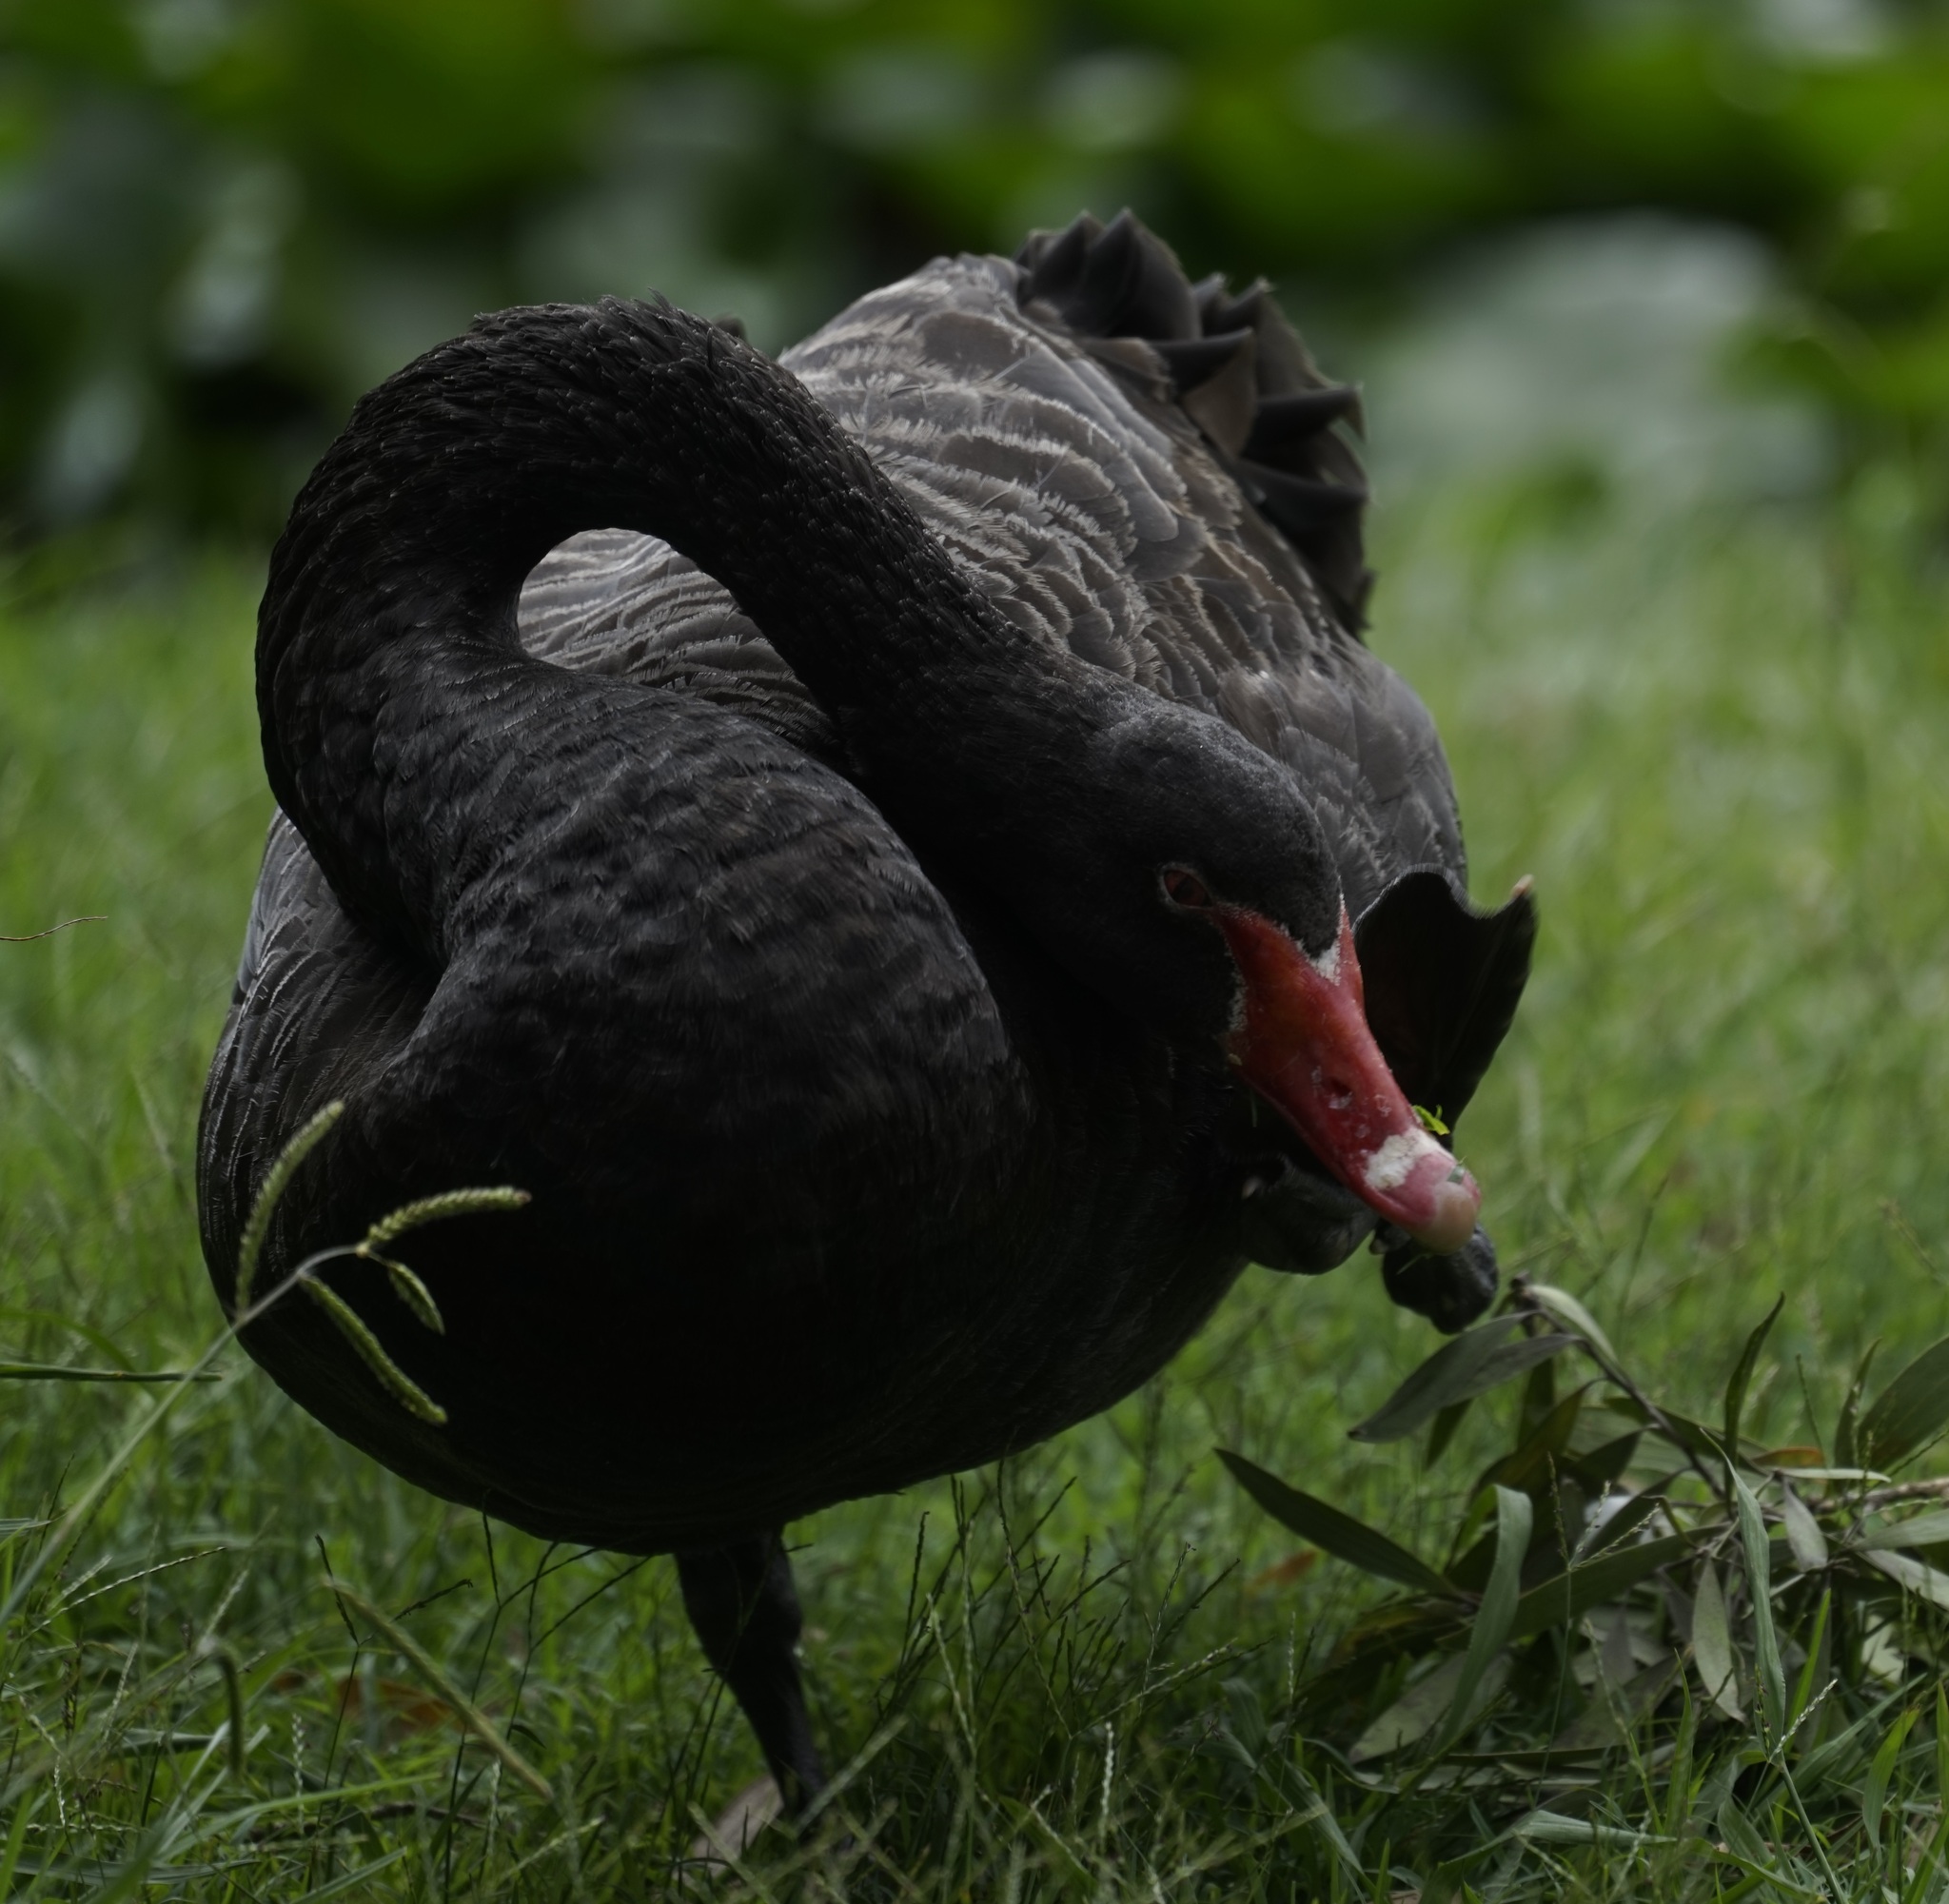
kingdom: Animalia
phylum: Chordata
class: Aves
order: Anseriformes
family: Anatidae
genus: Cygnus
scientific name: Cygnus atratus
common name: Black swan
